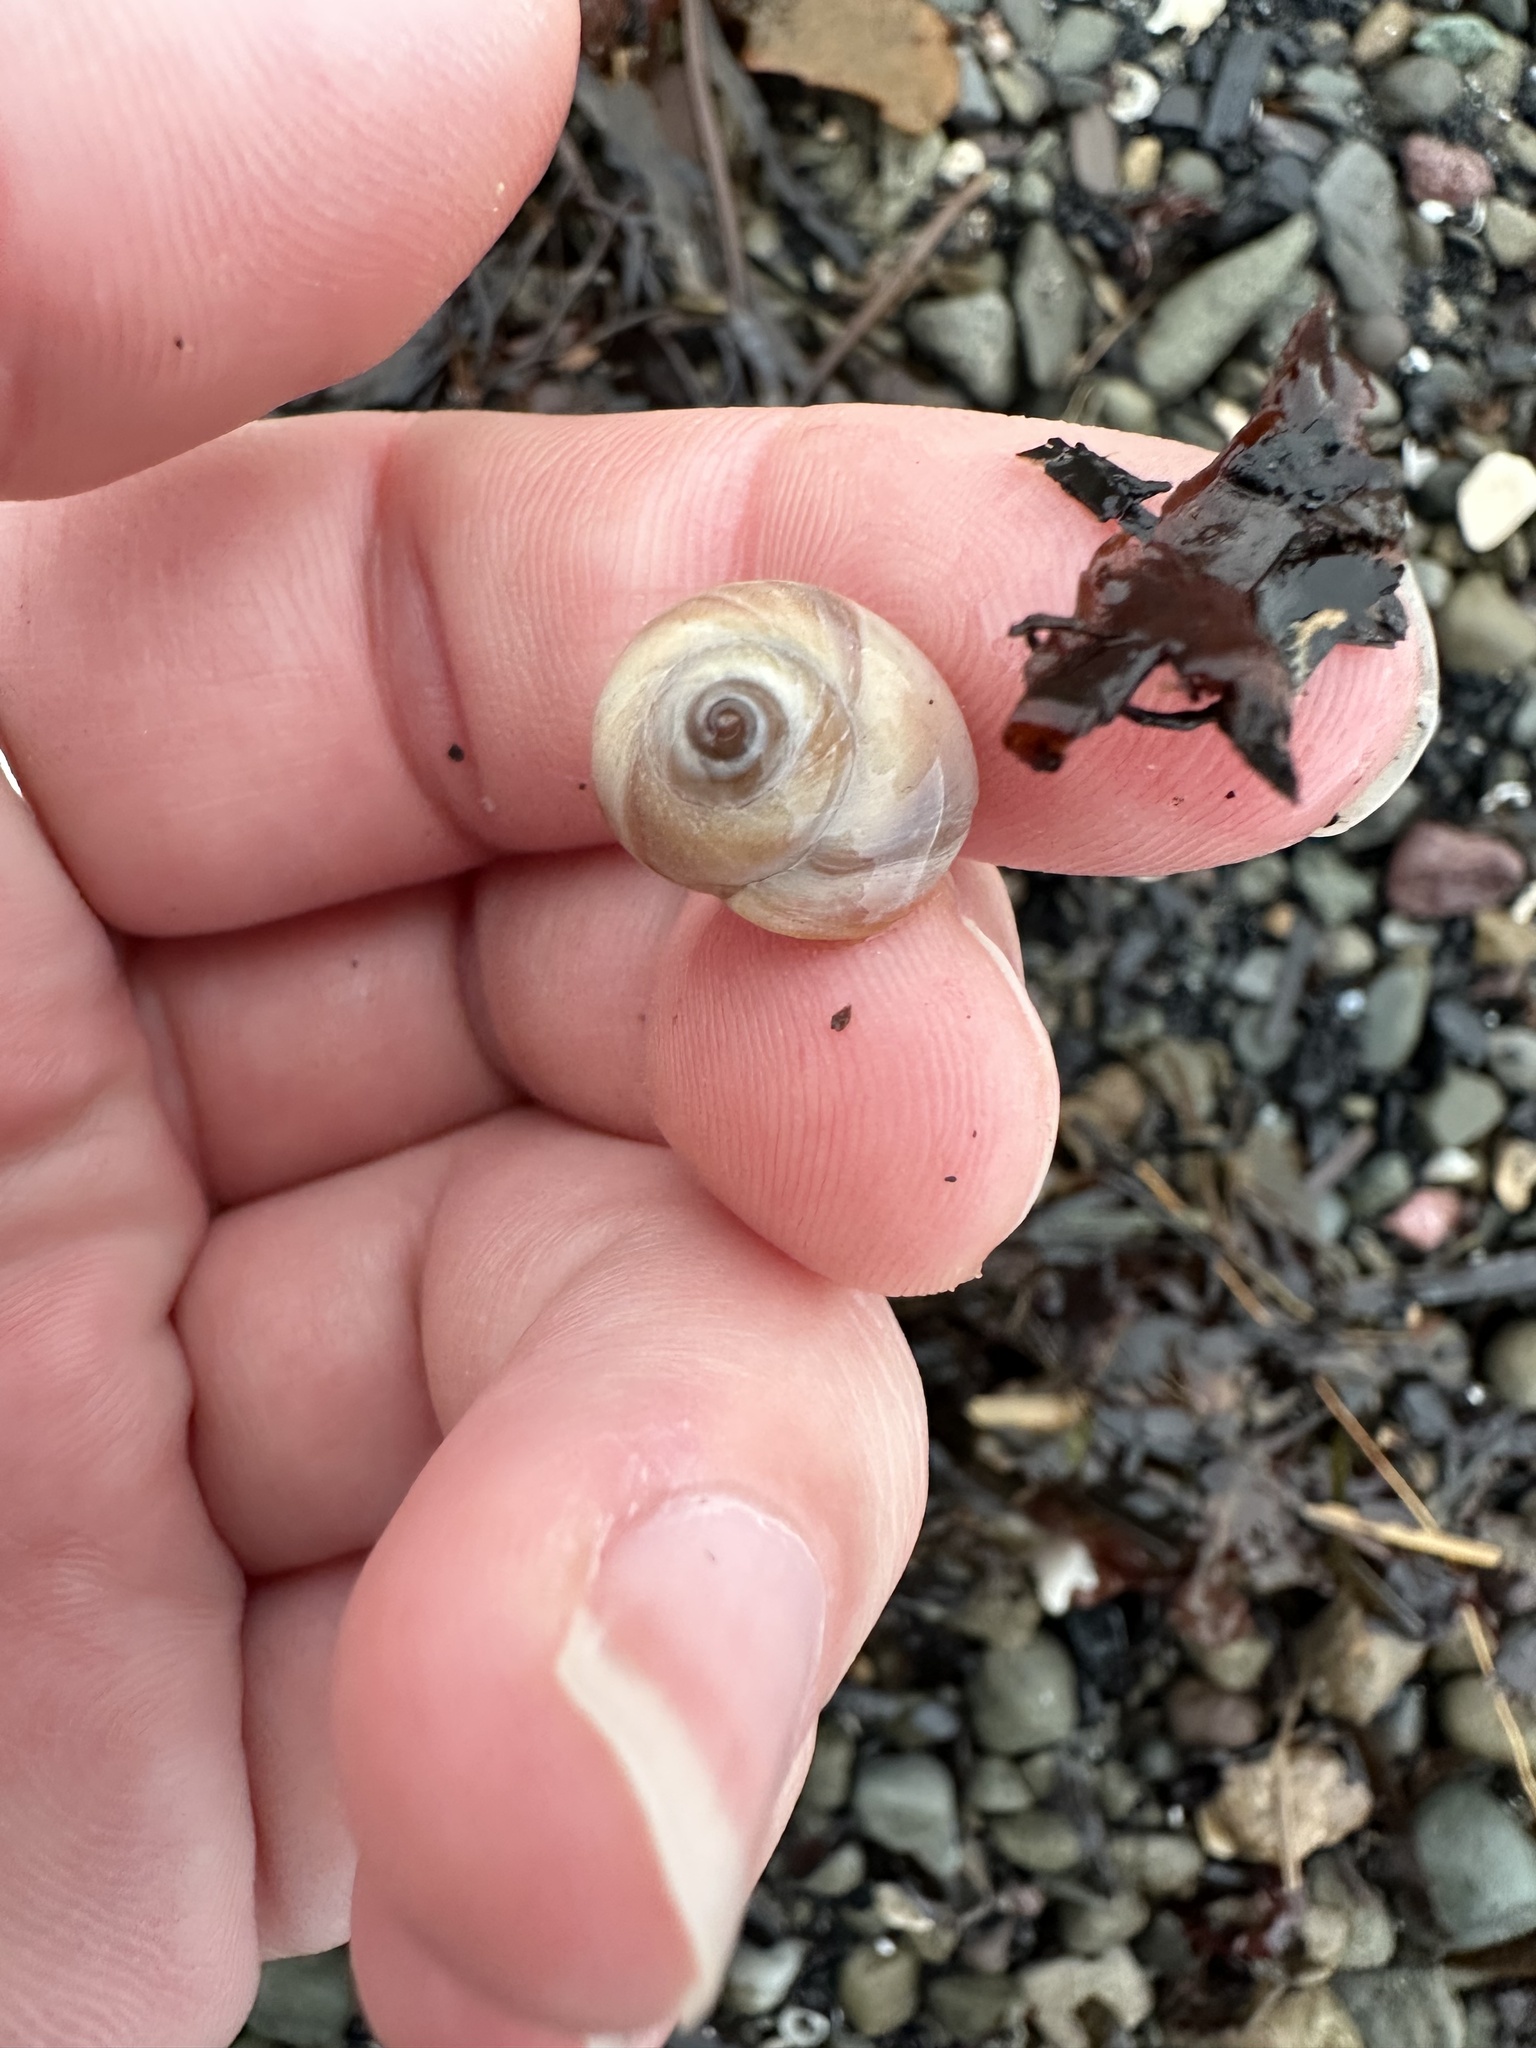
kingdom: Animalia
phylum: Mollusca
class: Gastropoda
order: Littorinimorpha
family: Naticidae
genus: Euspira
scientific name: Euspira heros
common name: Common northern moonsnail
